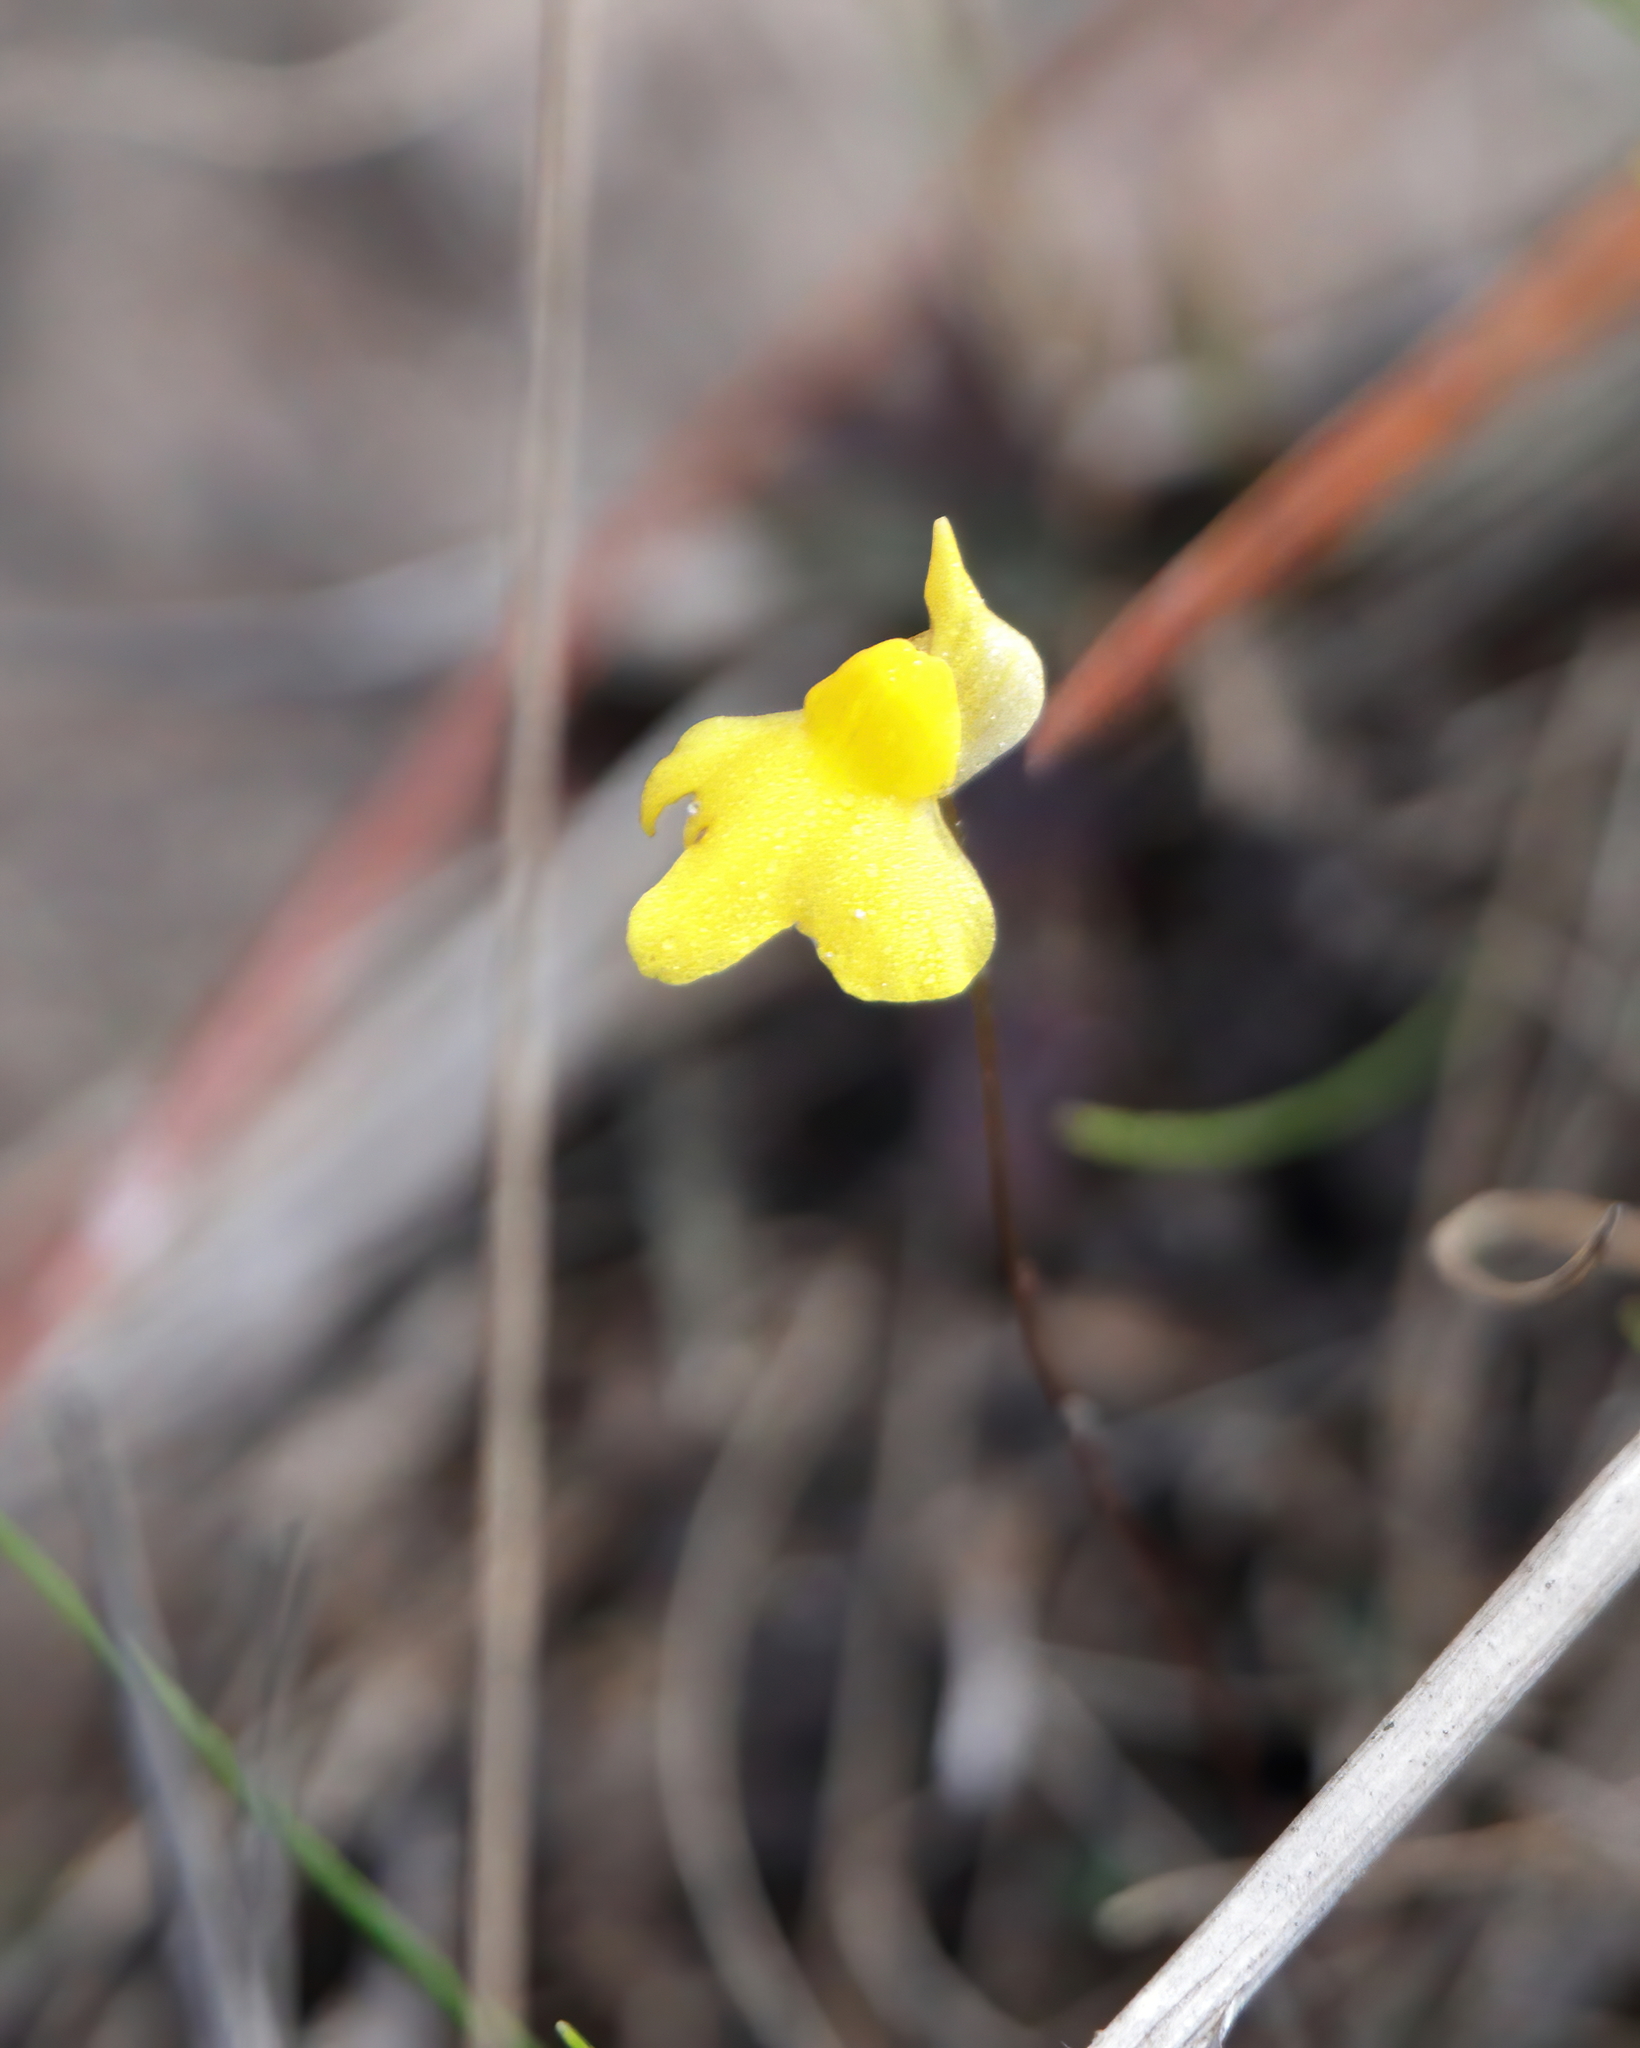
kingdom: Plantae
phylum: Tracheophyta
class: Magnoliopsida
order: Lamiales
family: Lentibulariaceae
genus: Utricularia
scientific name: Utricularia subulata
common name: Tiny bladderwort
